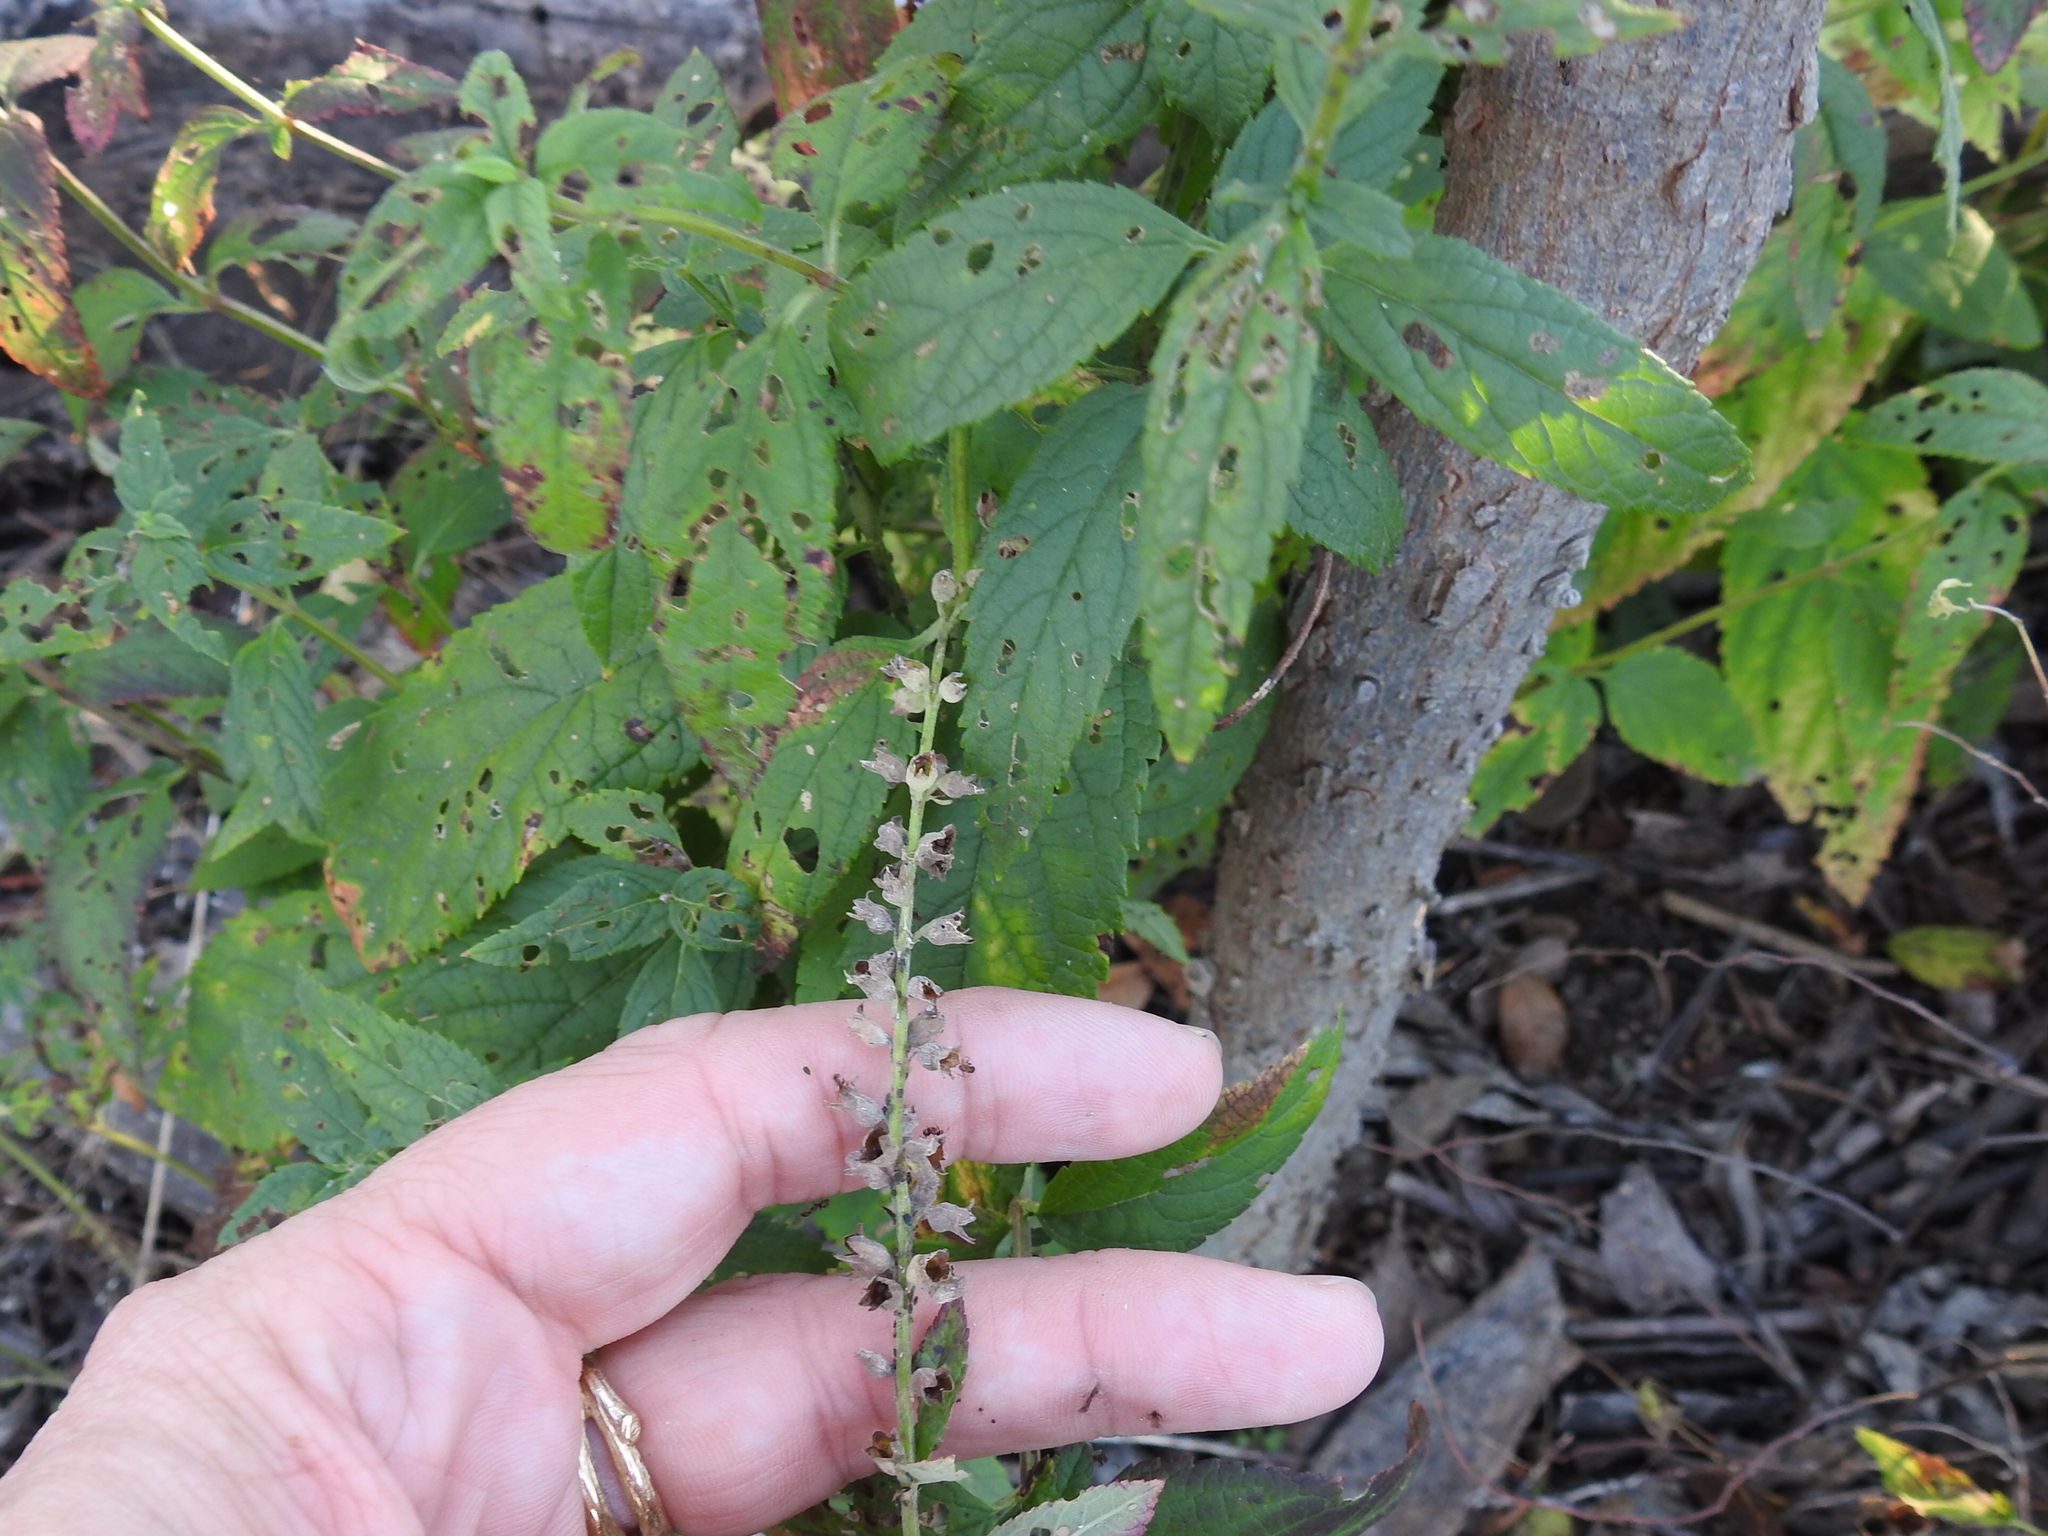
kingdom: Plantae
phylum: Tracheophyta
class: Magnoliopsida
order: Lamiales
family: Lamiaceae
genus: Teucrium
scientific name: Teucrium canadense
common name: American germander
